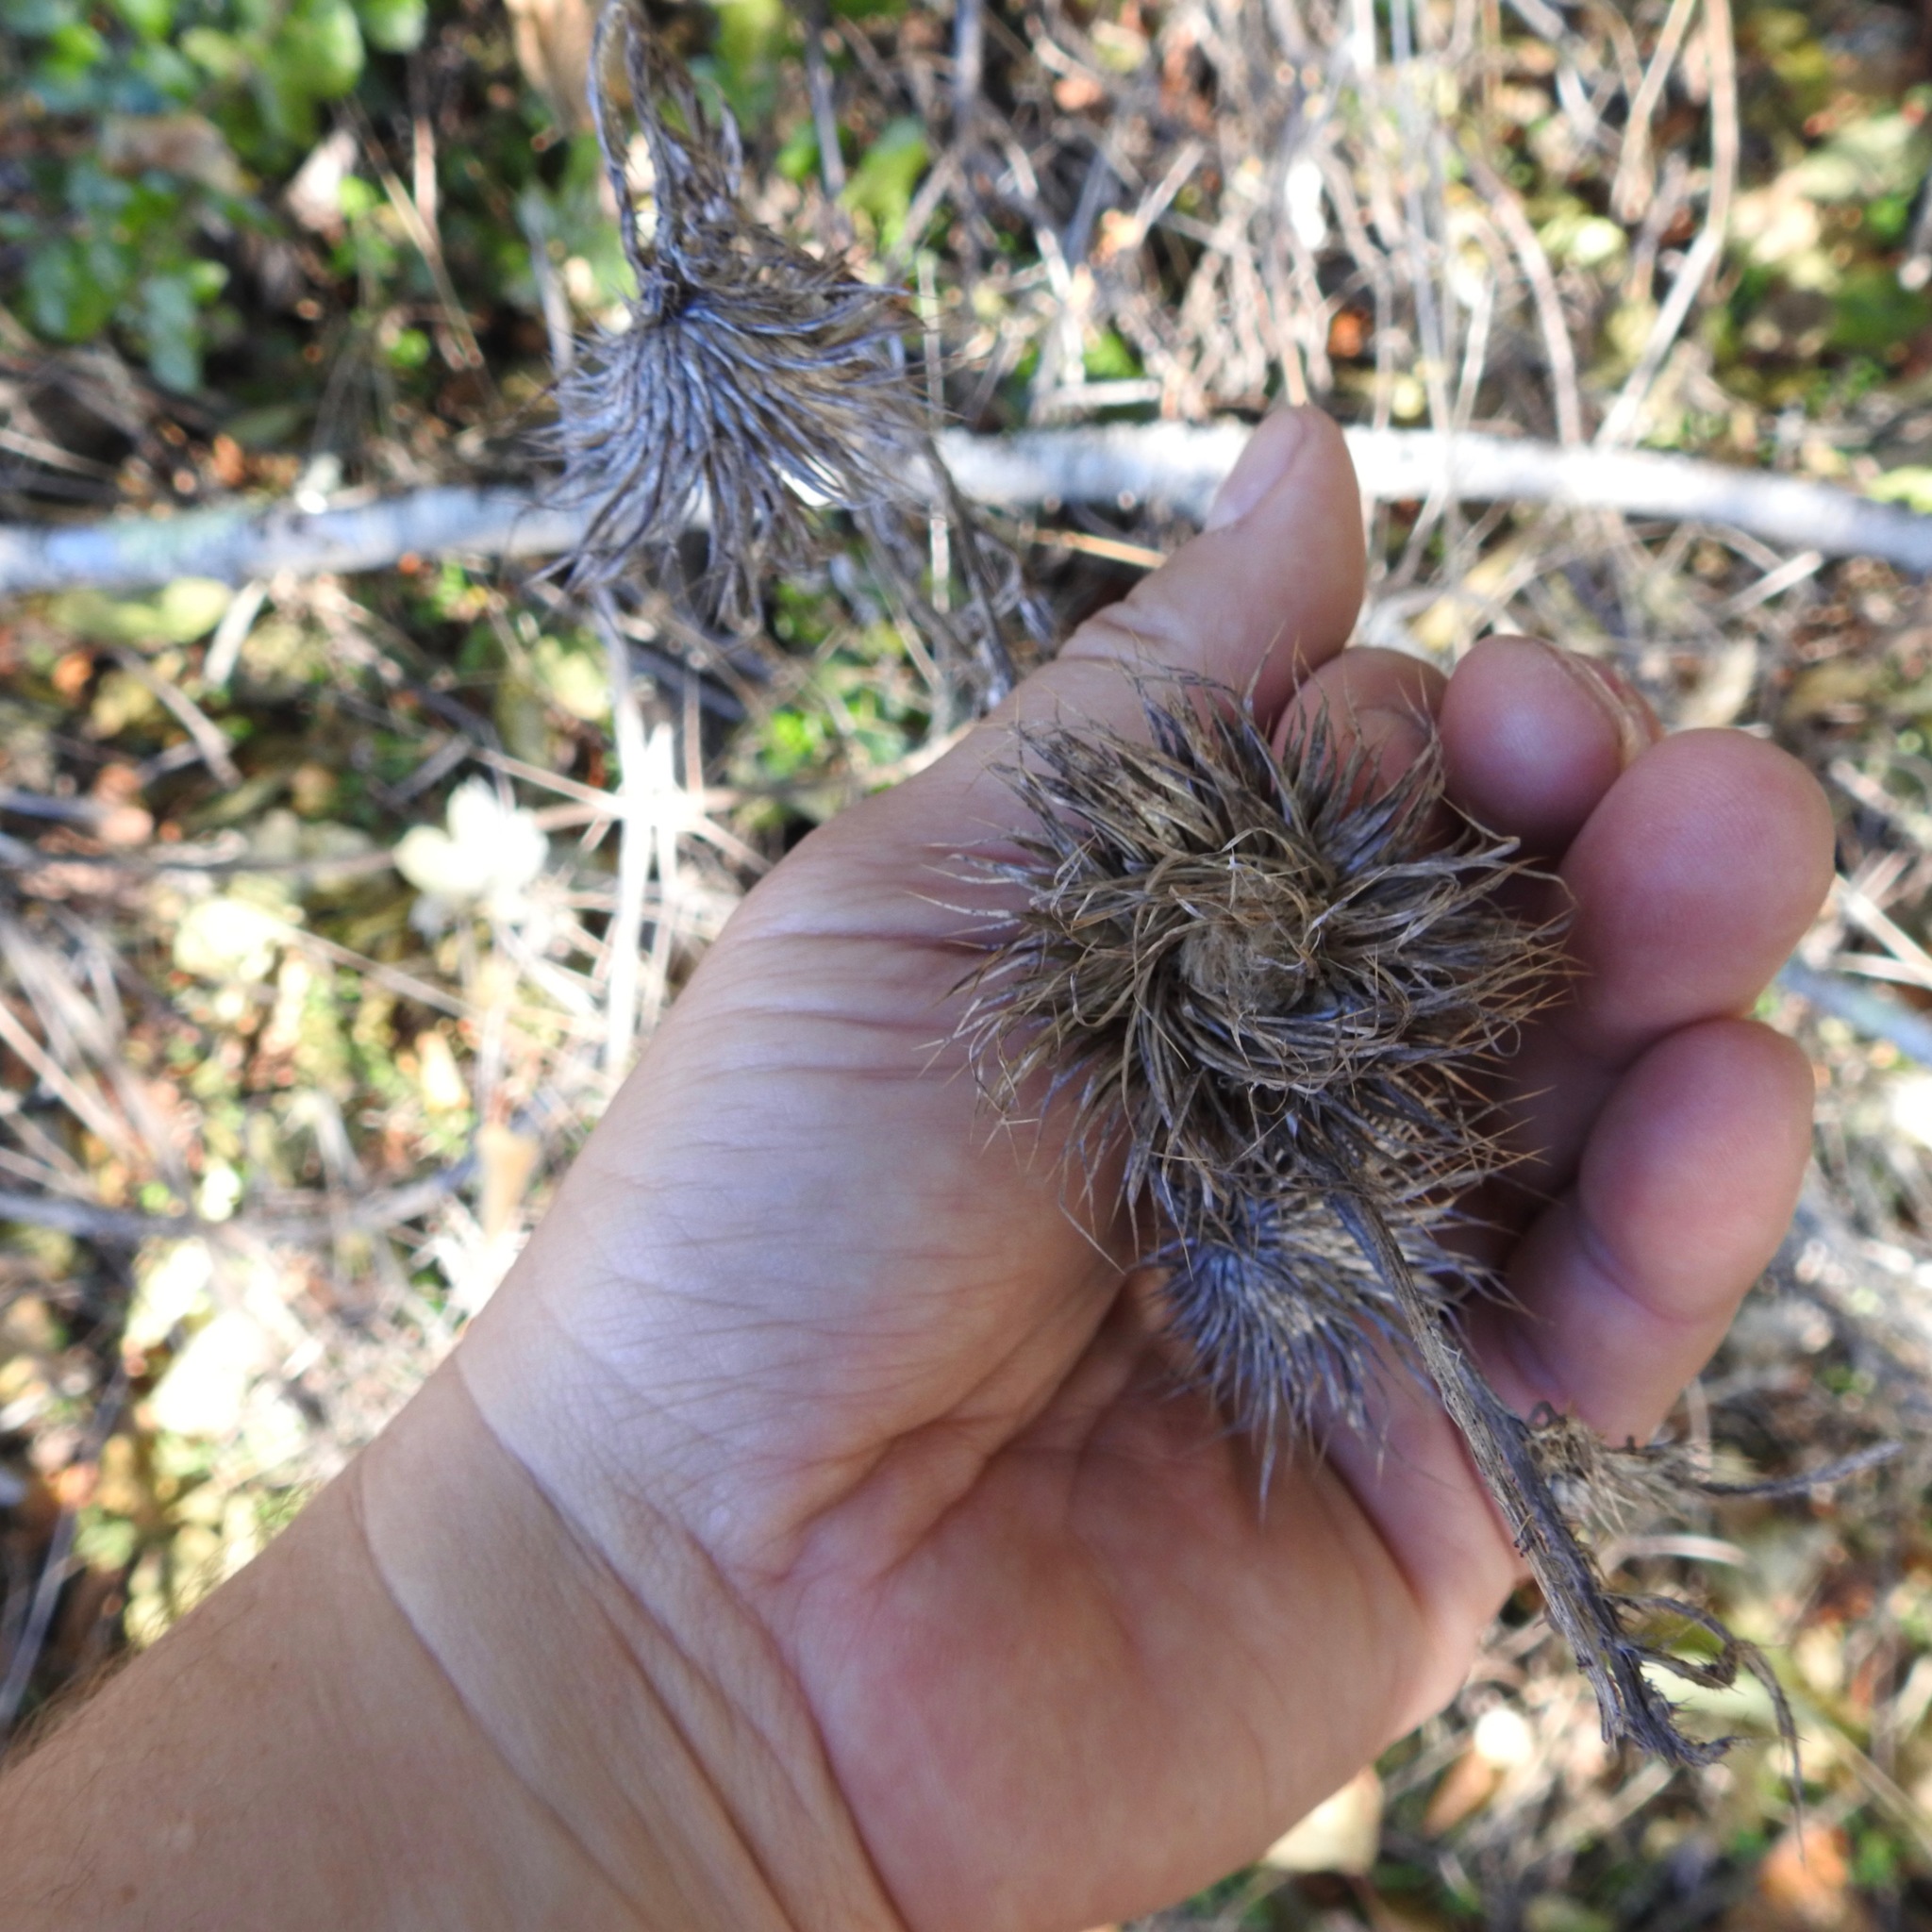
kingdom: Plantae
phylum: Tracheophyta
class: Magnoliopsida
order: Asterales
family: Asteraceae
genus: Cirsium
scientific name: Cirsium vulgare
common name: Bull thistle
